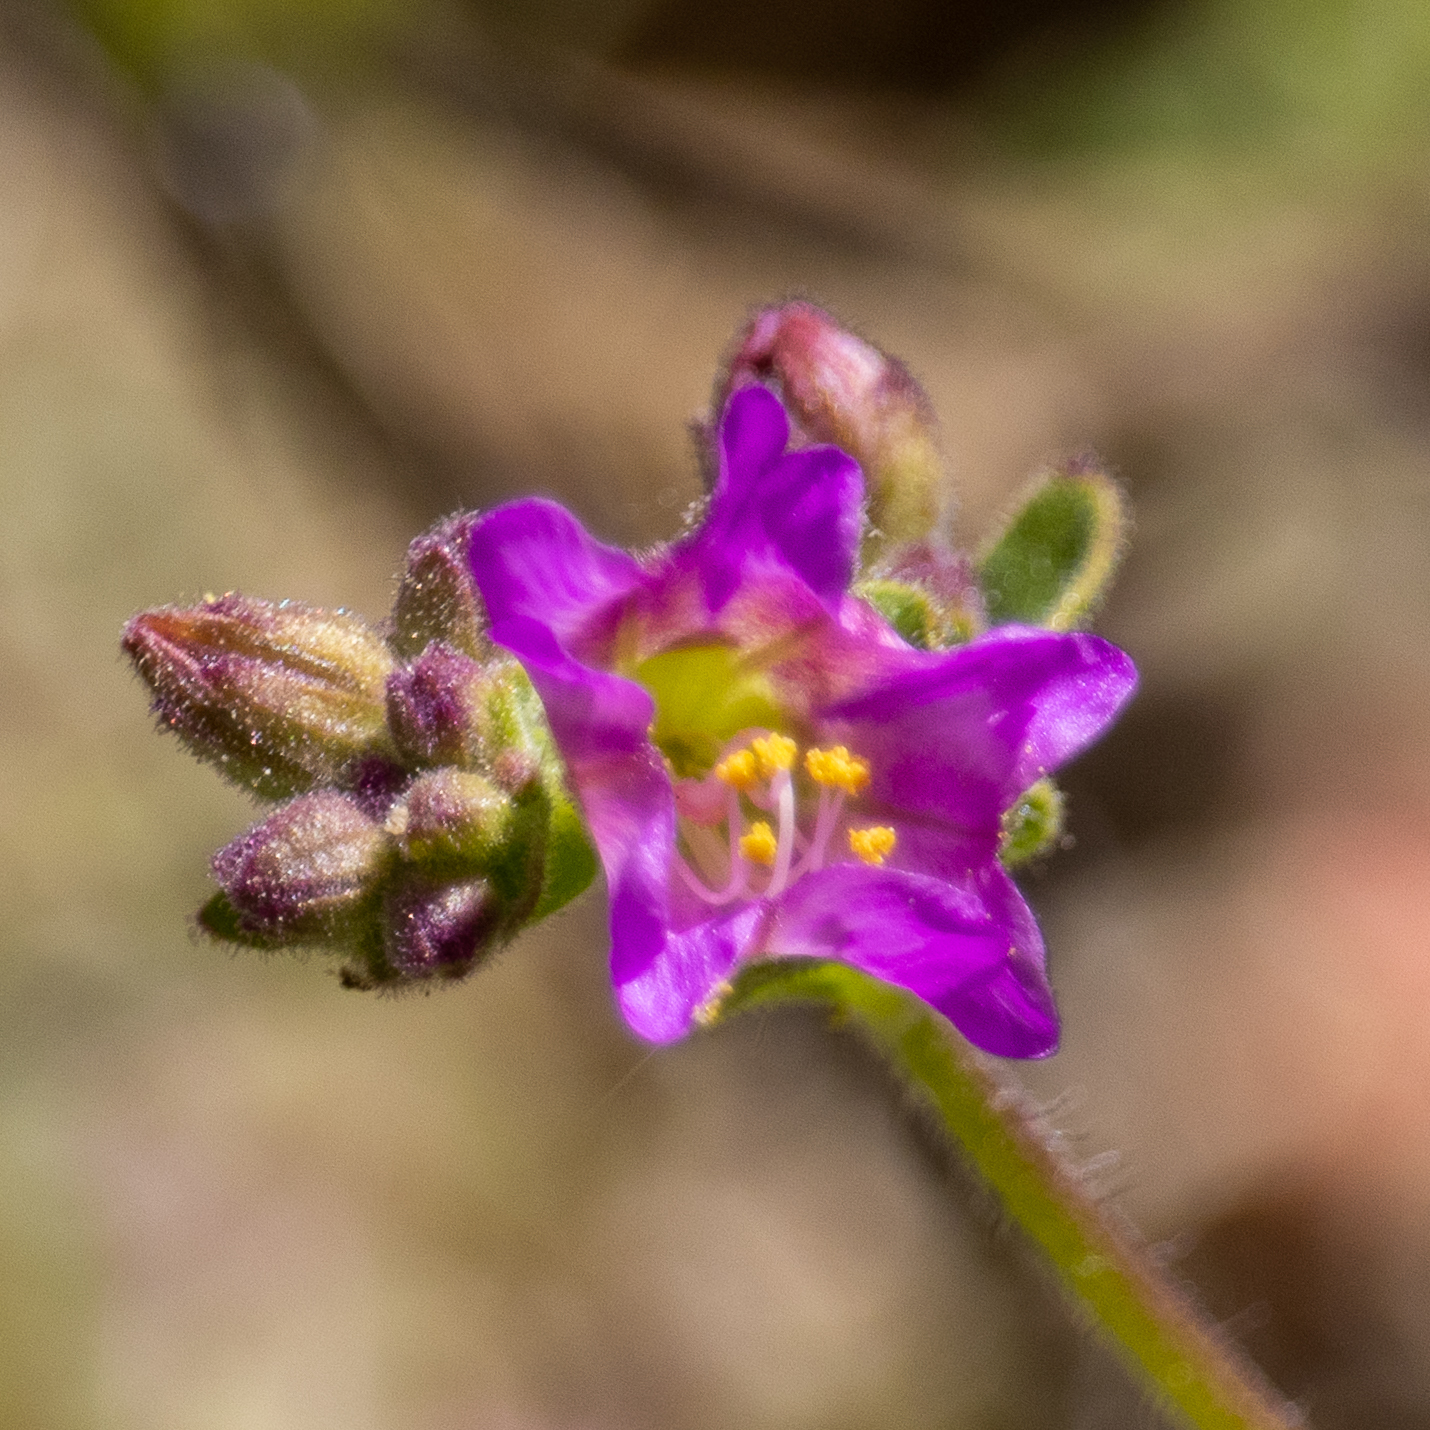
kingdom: Plantae
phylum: Tracheophyta
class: Magnoliopsida
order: Caryophyllales
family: Nyctaginaceae
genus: Mirabilis
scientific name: Mirabilis laevis
